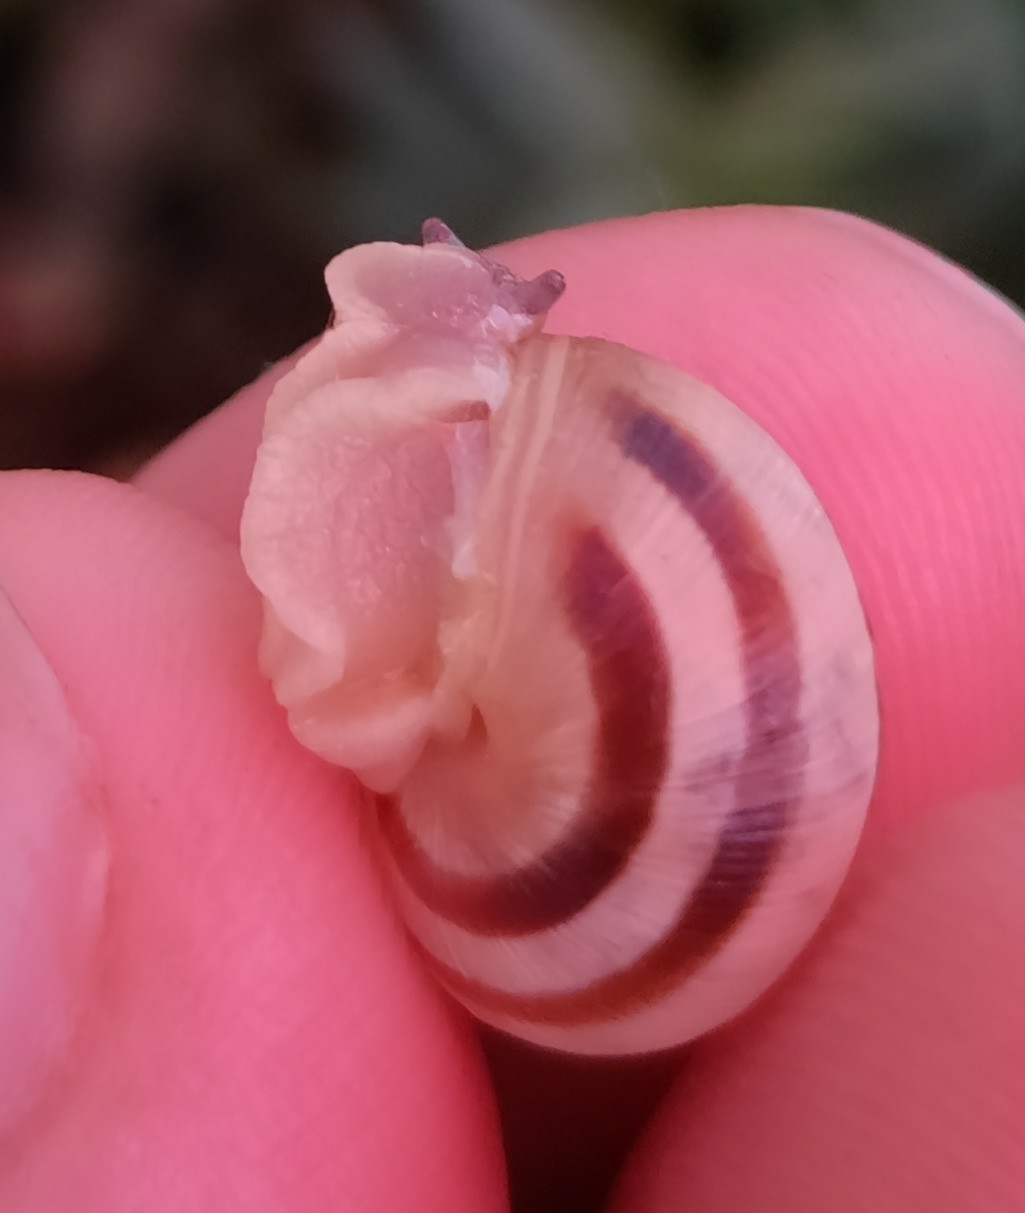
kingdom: Animalia
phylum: Mollusca
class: Gastropoda
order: Stylommatophora
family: Helicidae
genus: Caucasotachea
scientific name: Caucasotachea vindobonensis
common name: European helicid land snail
